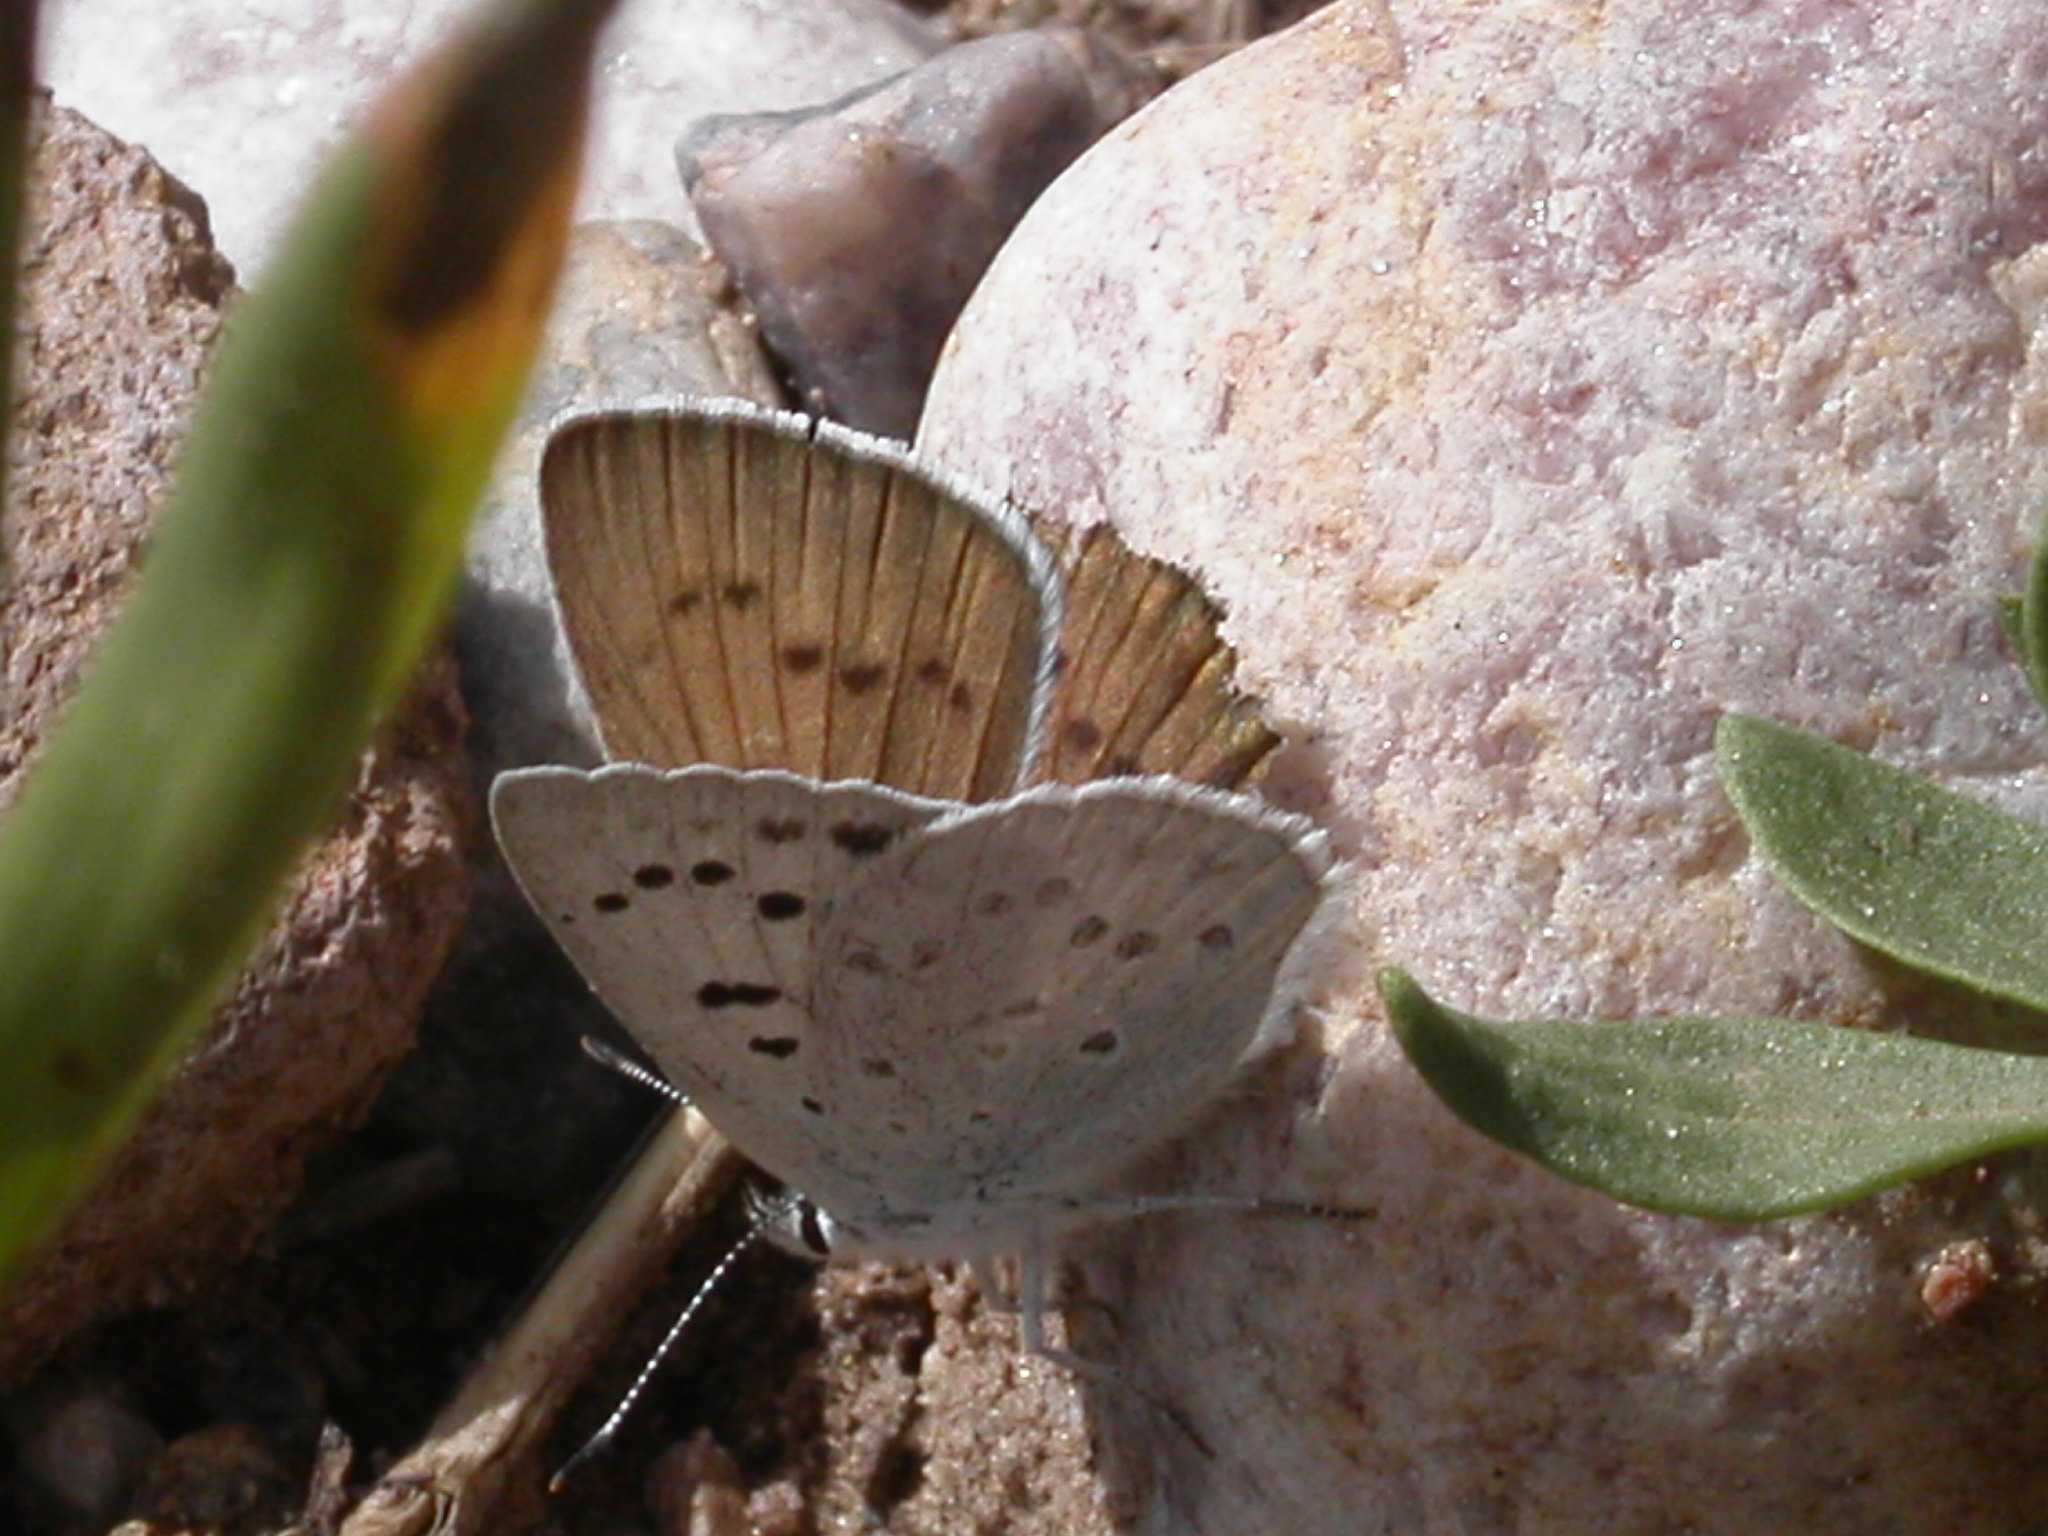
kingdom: Animalia
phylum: Arthropoda
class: Insecta
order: Lepidoptera
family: Lycaenidae
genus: Tharsalea
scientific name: Tharsalea heteronea
